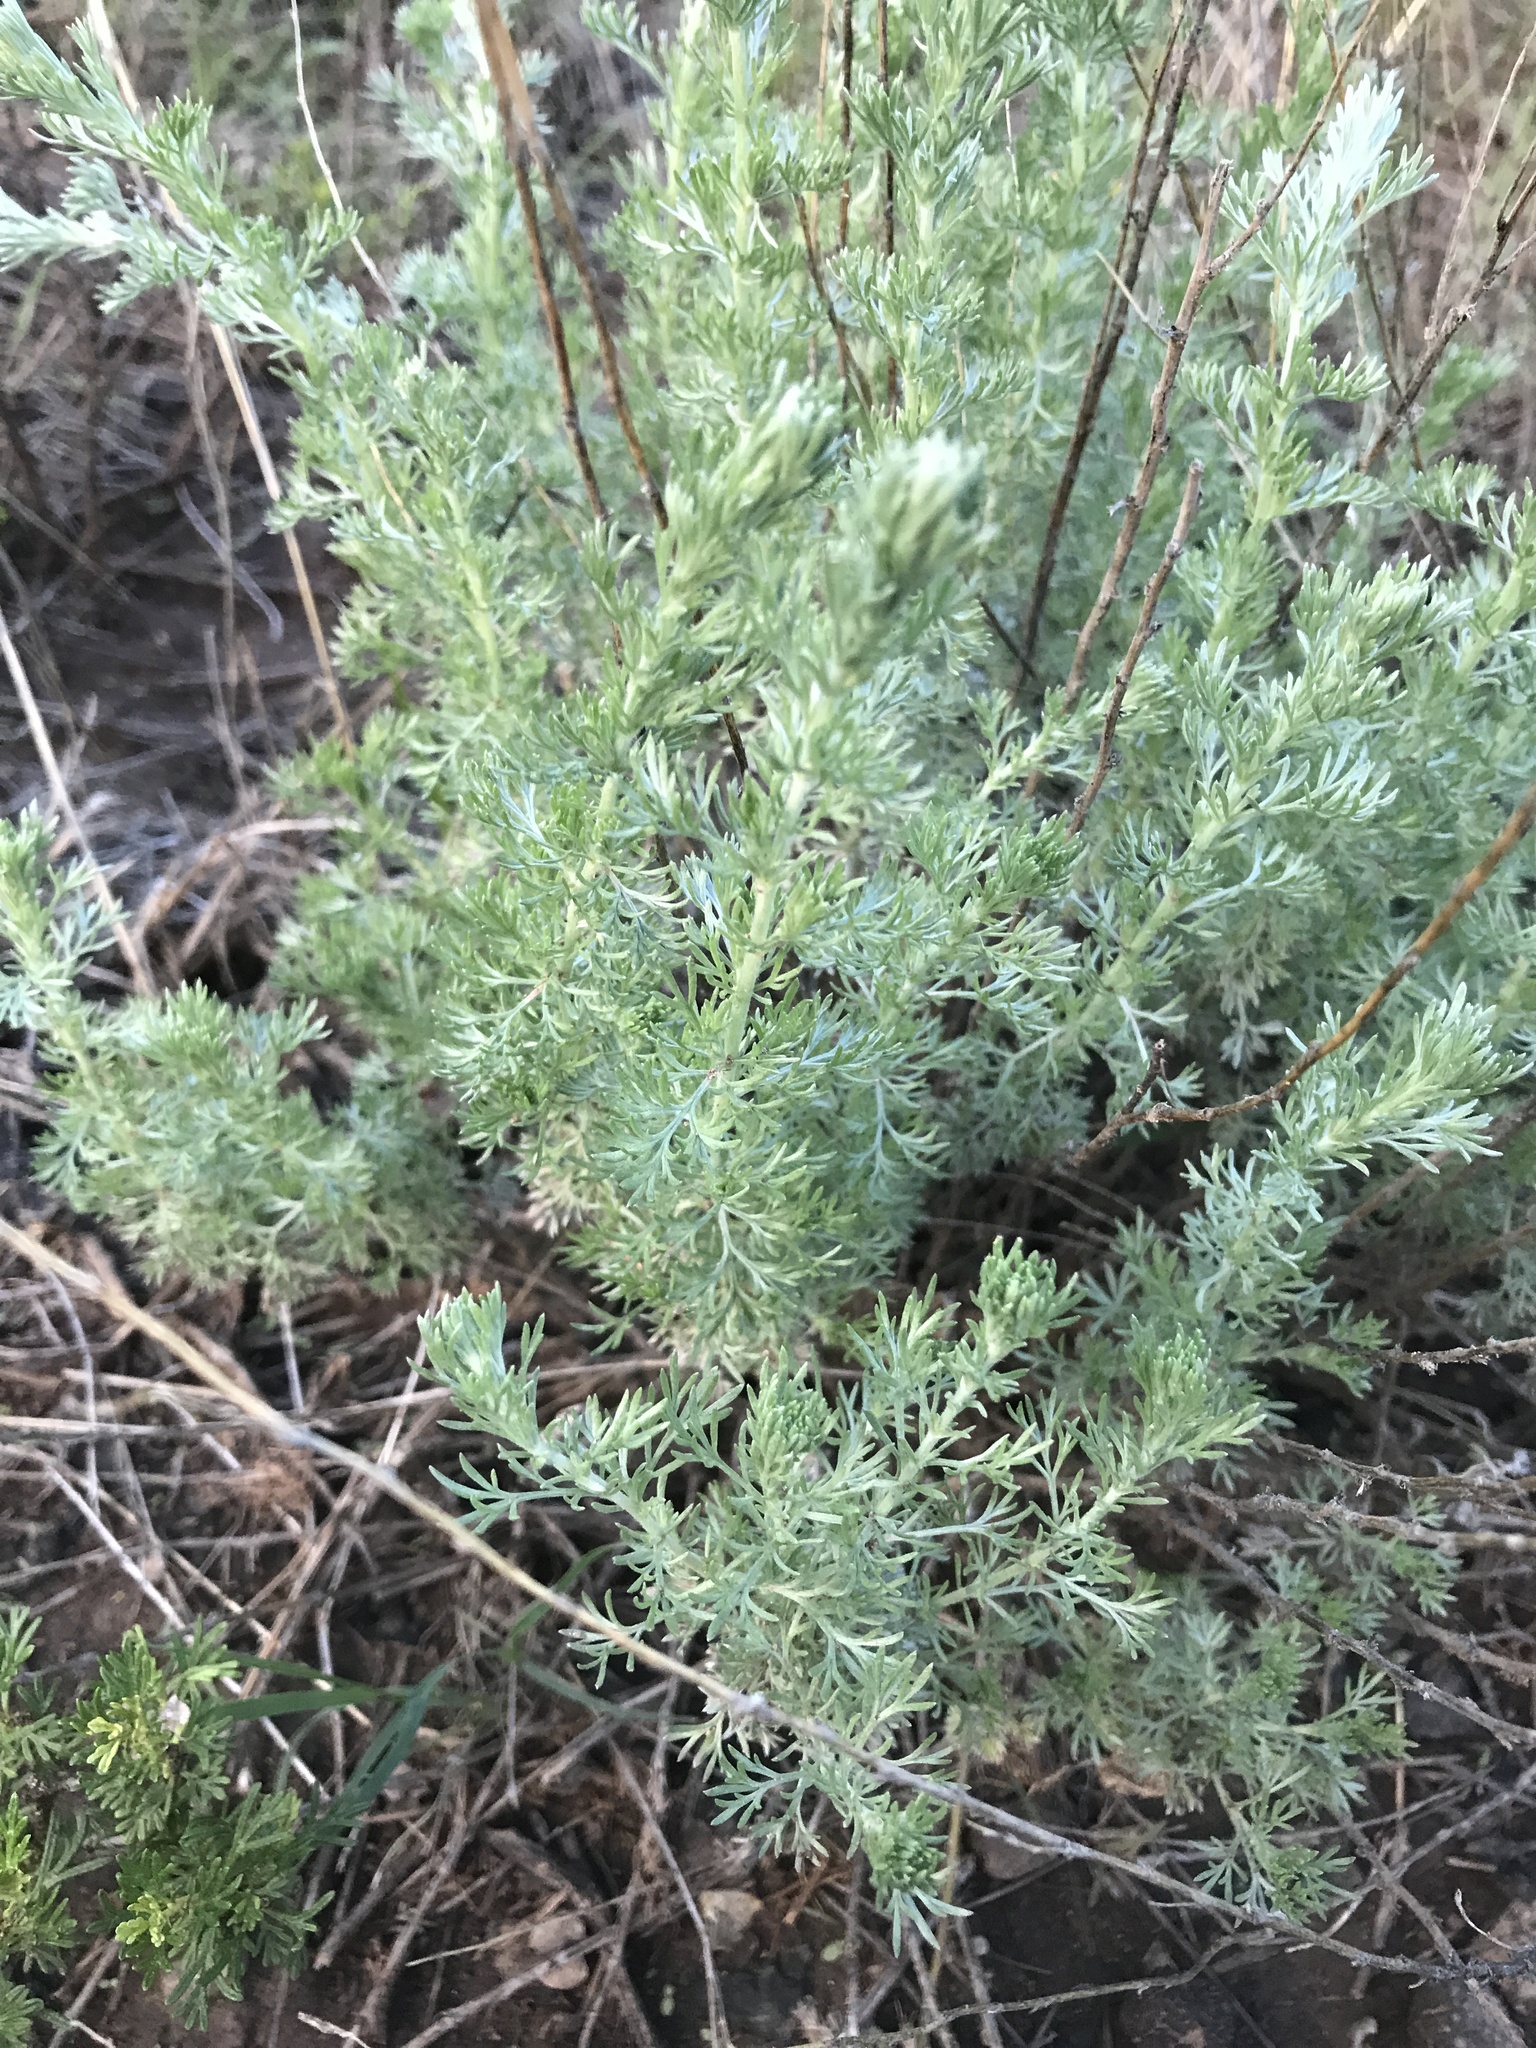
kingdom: Plantae
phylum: Tracheophyta
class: Magnoliopsida
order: Asterales
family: Asteraceae
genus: Artemisia
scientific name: Artemisia frigida
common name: Prairie sagewort
